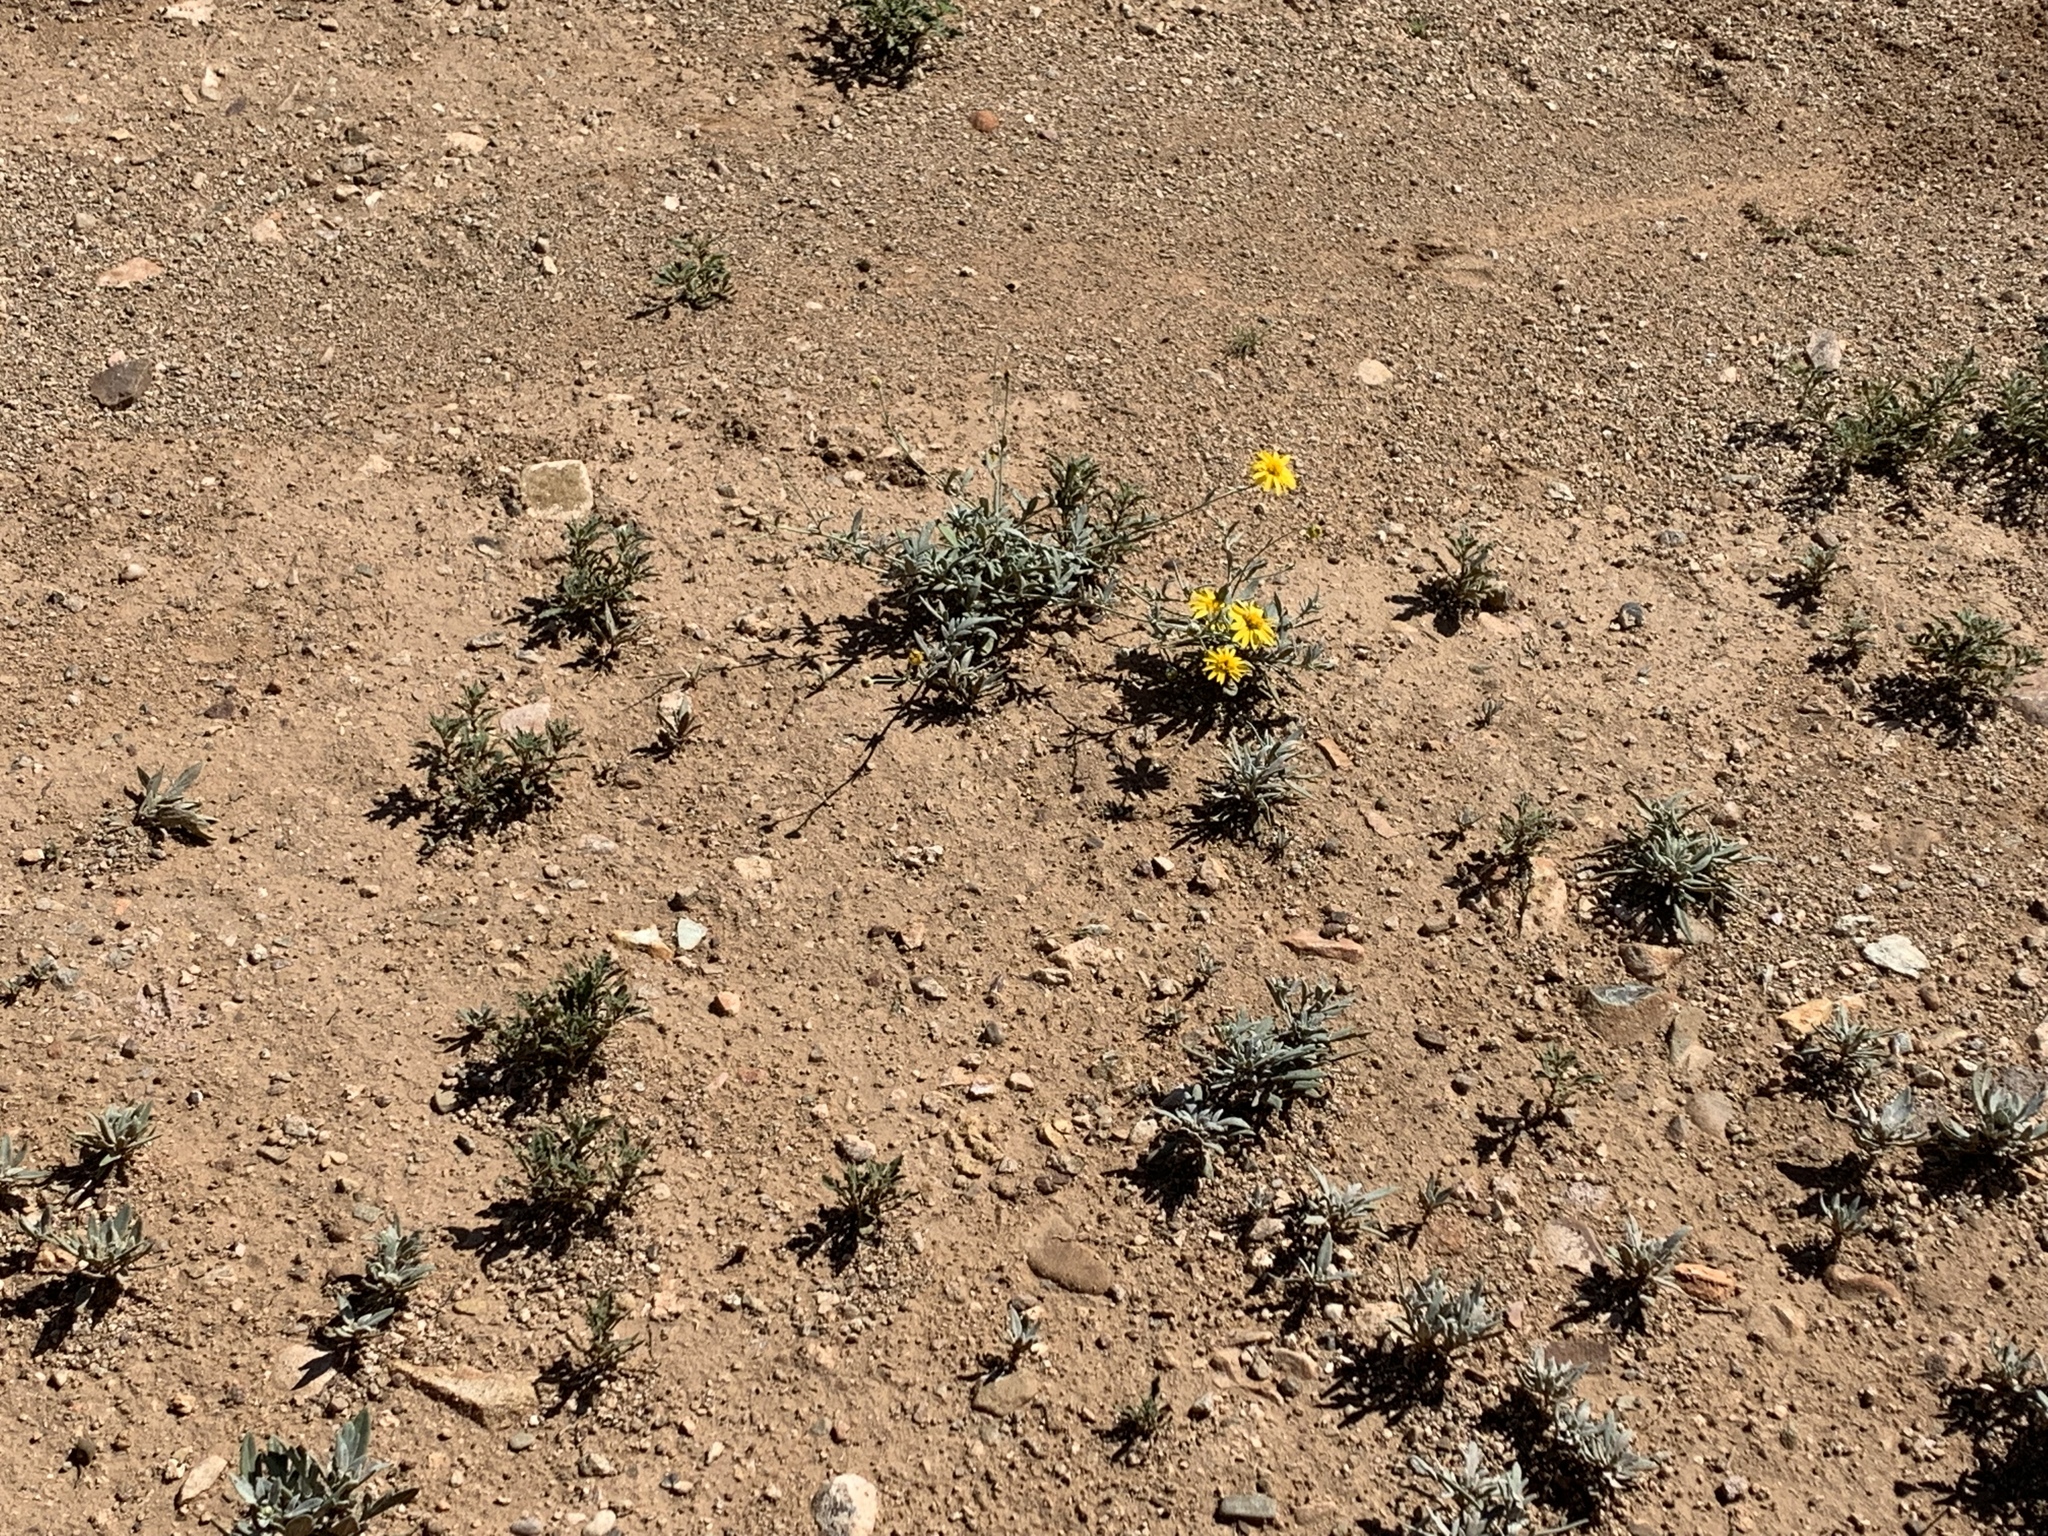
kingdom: Plantae
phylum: Tracheophyta
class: Magnoliopsida
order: Asterales
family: Asteraceae
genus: Picradeniopsis
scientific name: Picradeniopsis absinthifolia
